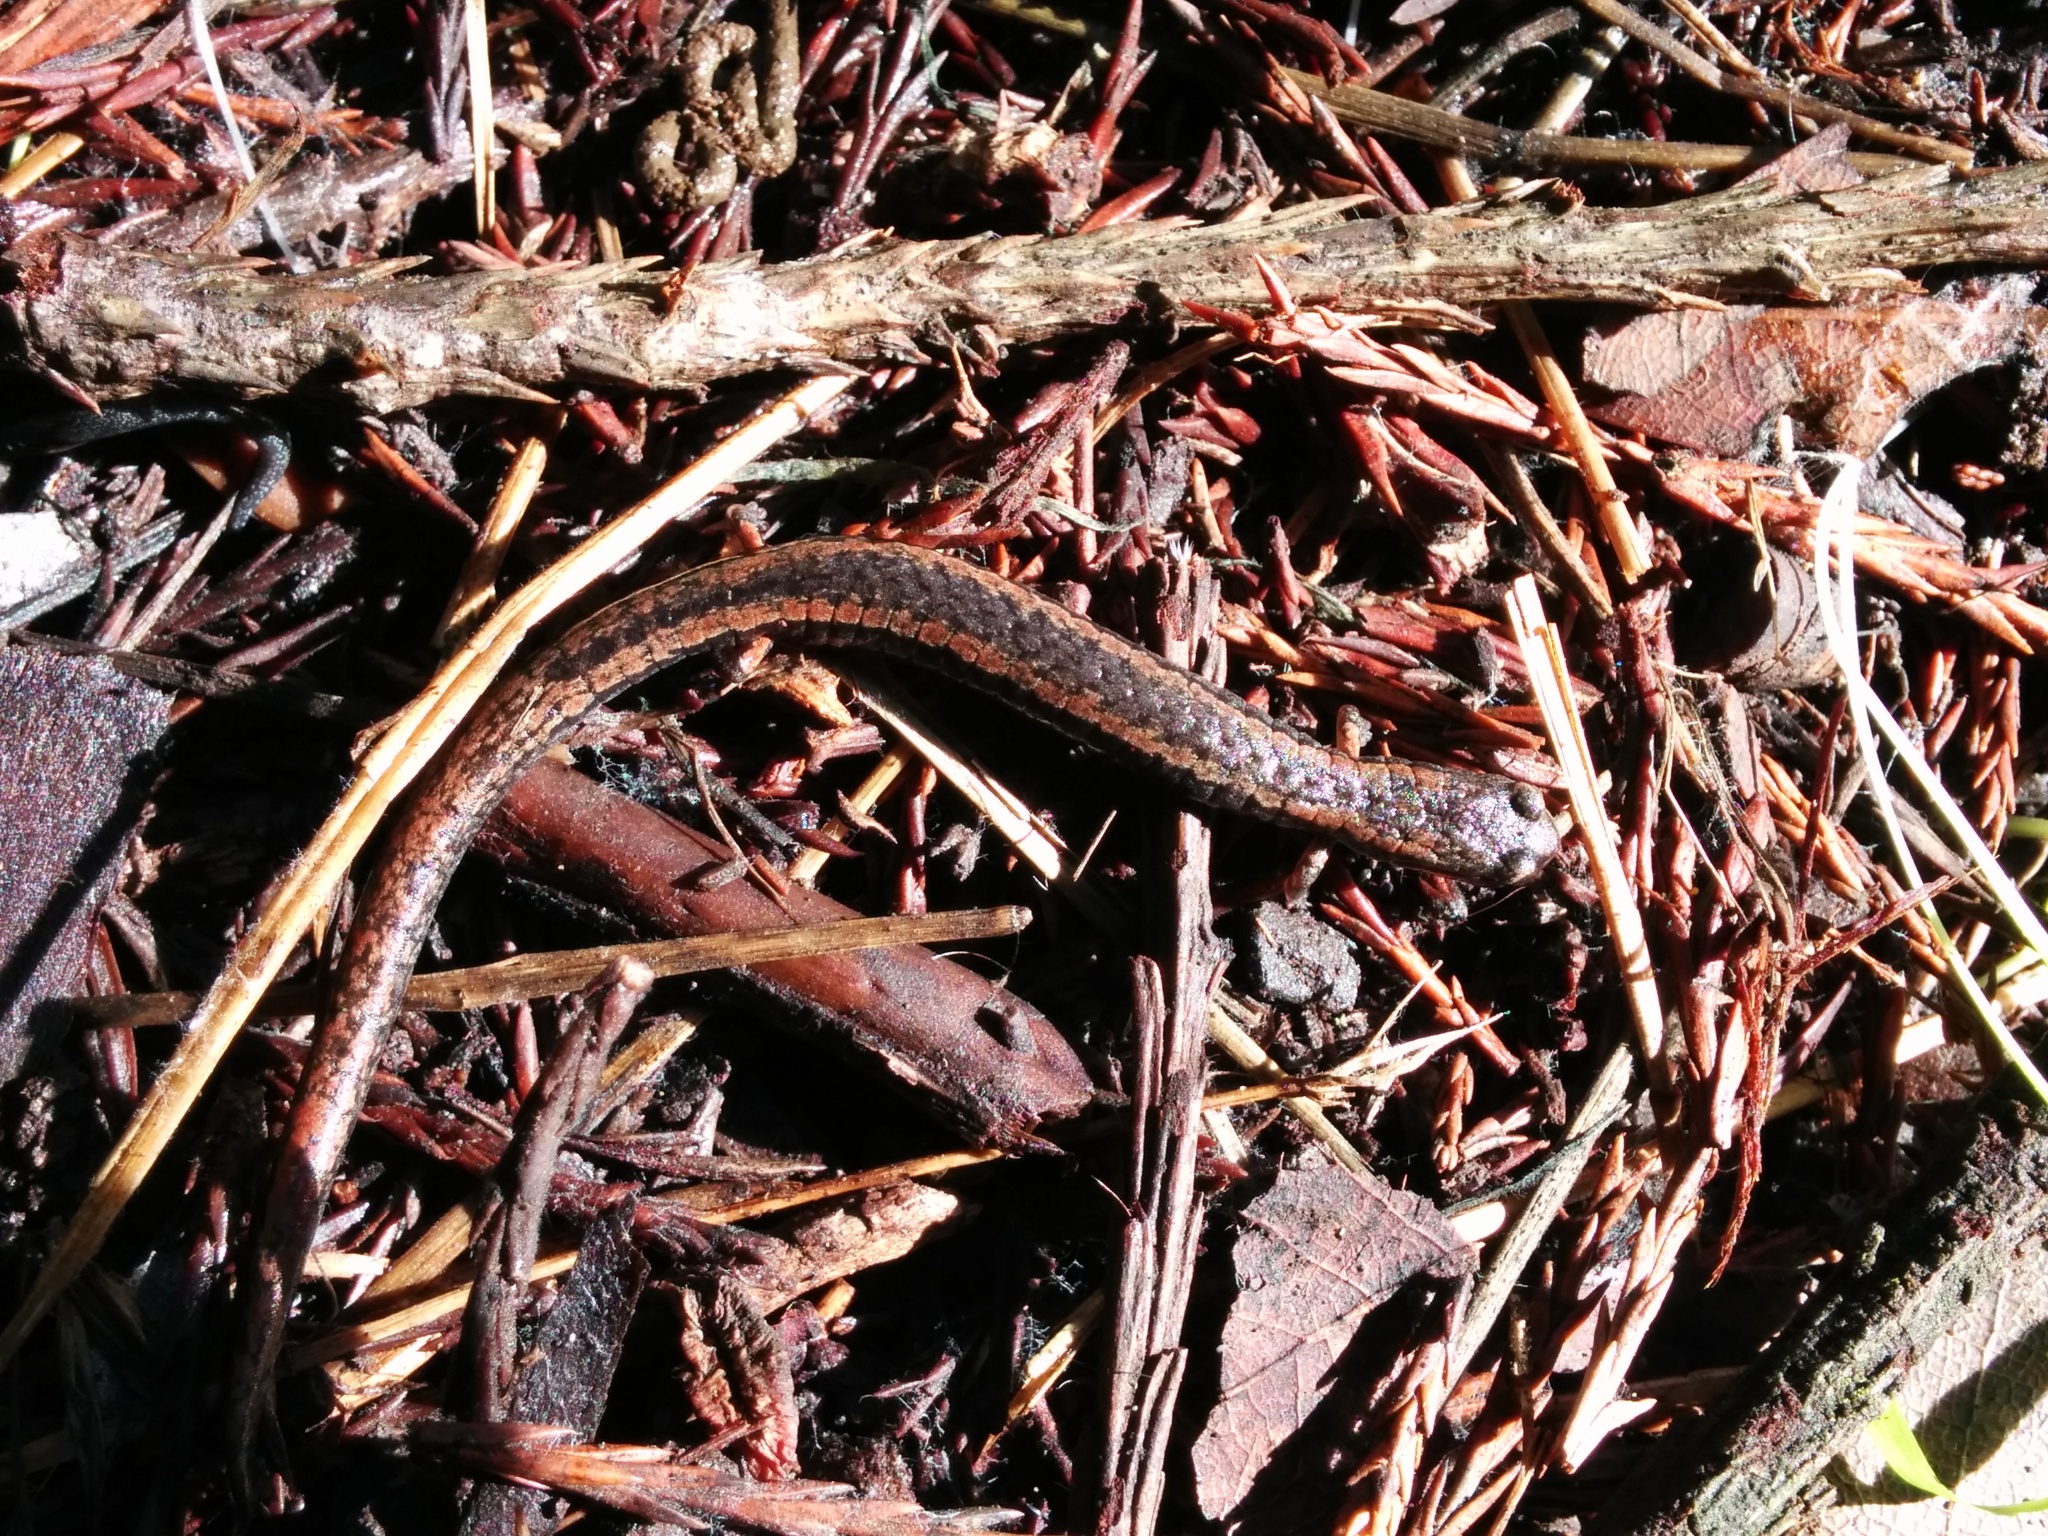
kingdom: Animalia
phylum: Chordata
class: Amphibia
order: Caudata
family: Plethodontidae
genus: Batrachoseps
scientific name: Batrachoseps attenuatus
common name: California slender salamander
